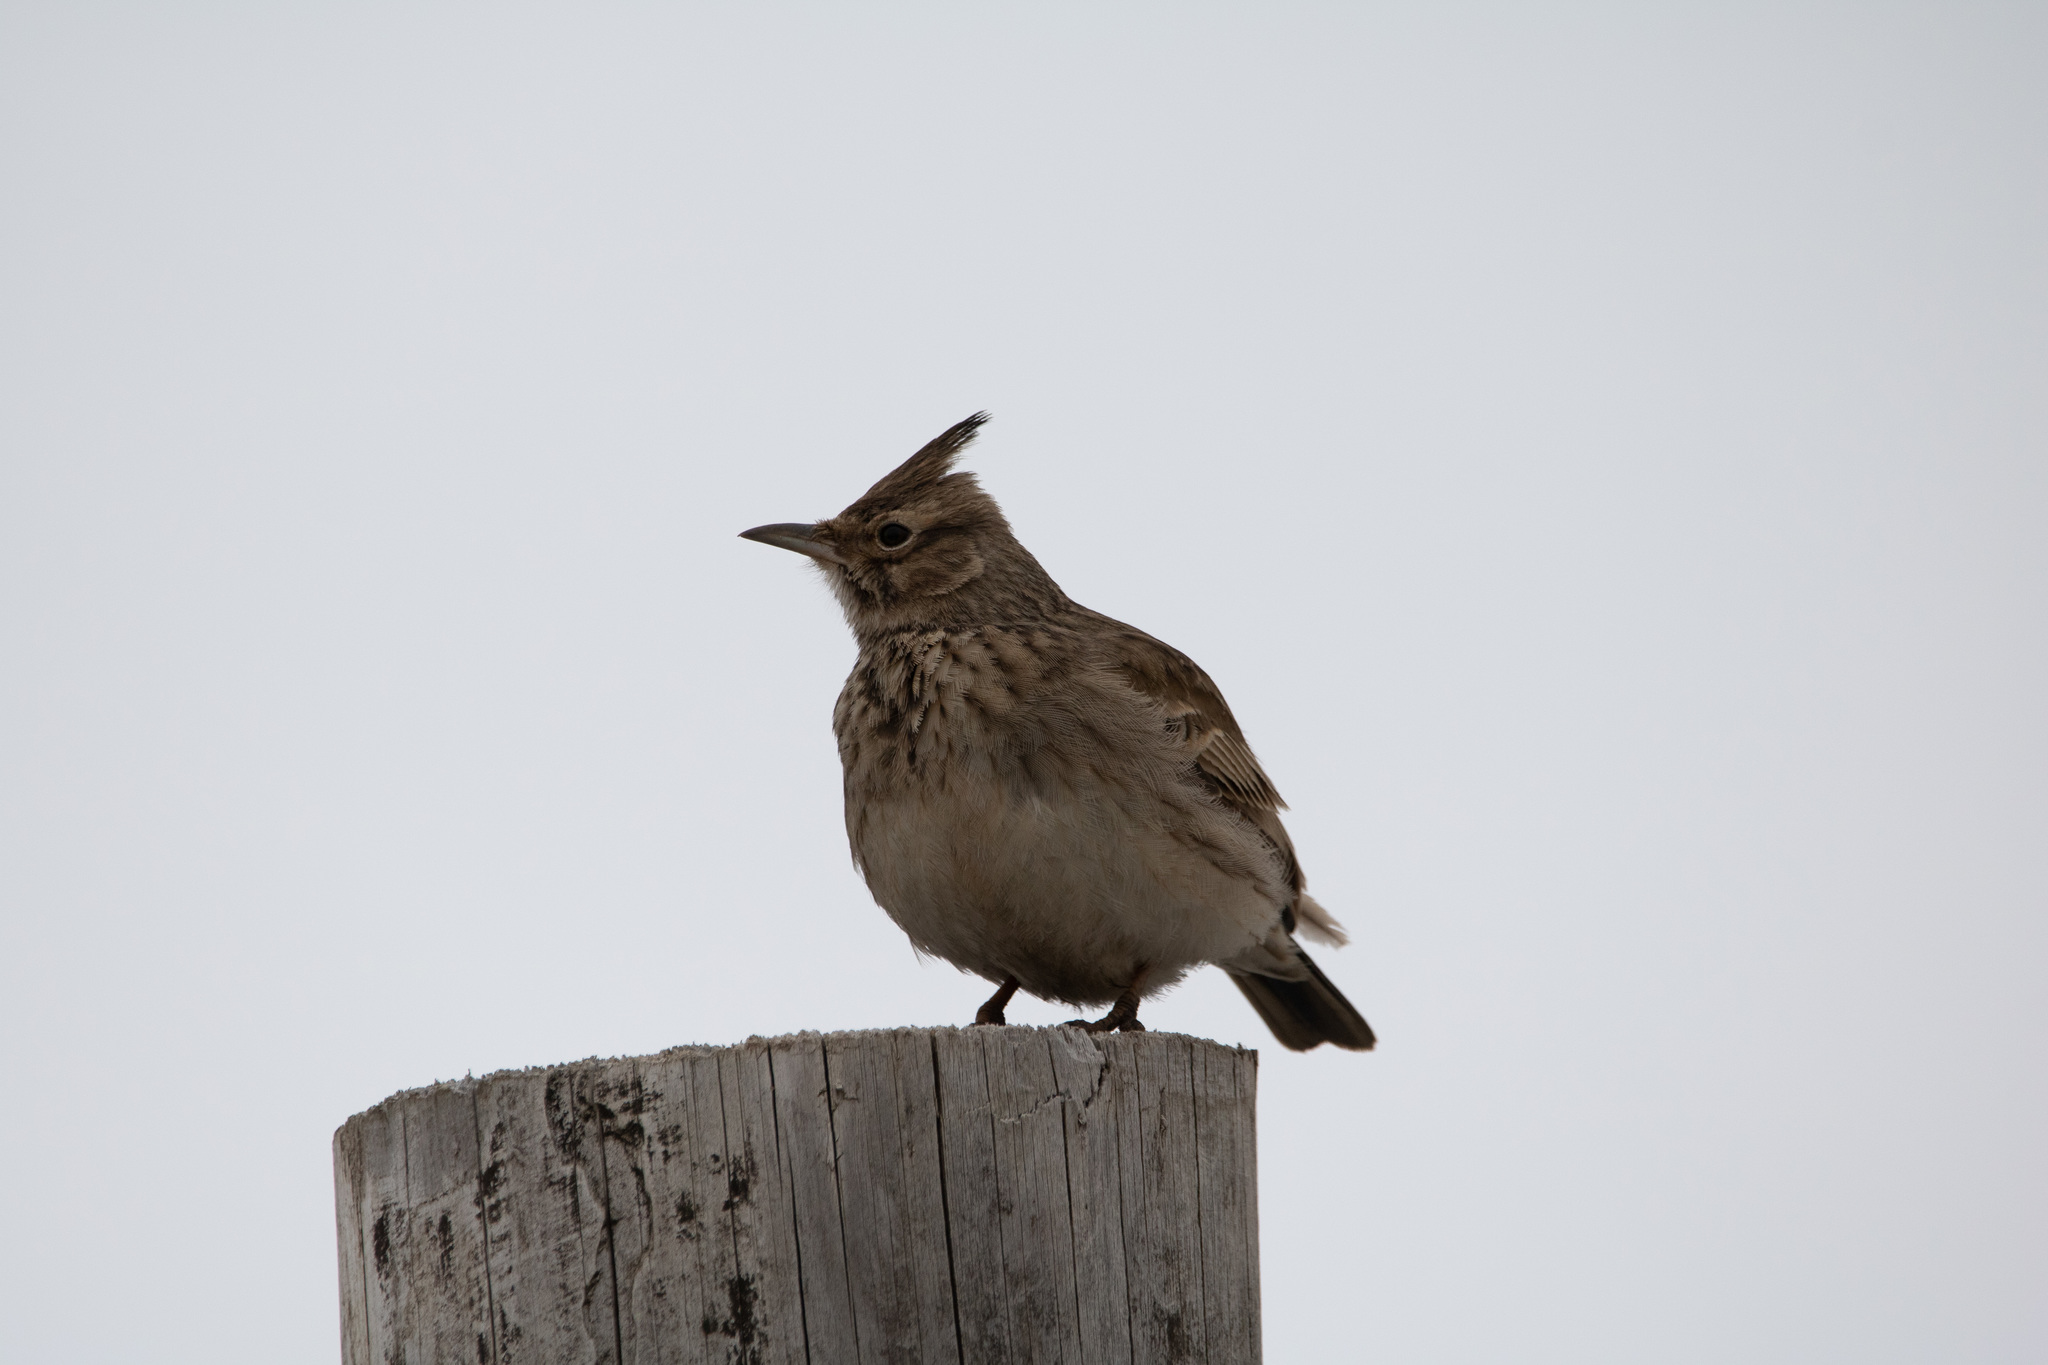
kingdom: Animalia
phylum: Chordata
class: Aves
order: Passeriformes
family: Alaudidae
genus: Galerida
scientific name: Galerida cristata
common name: Crested lark
